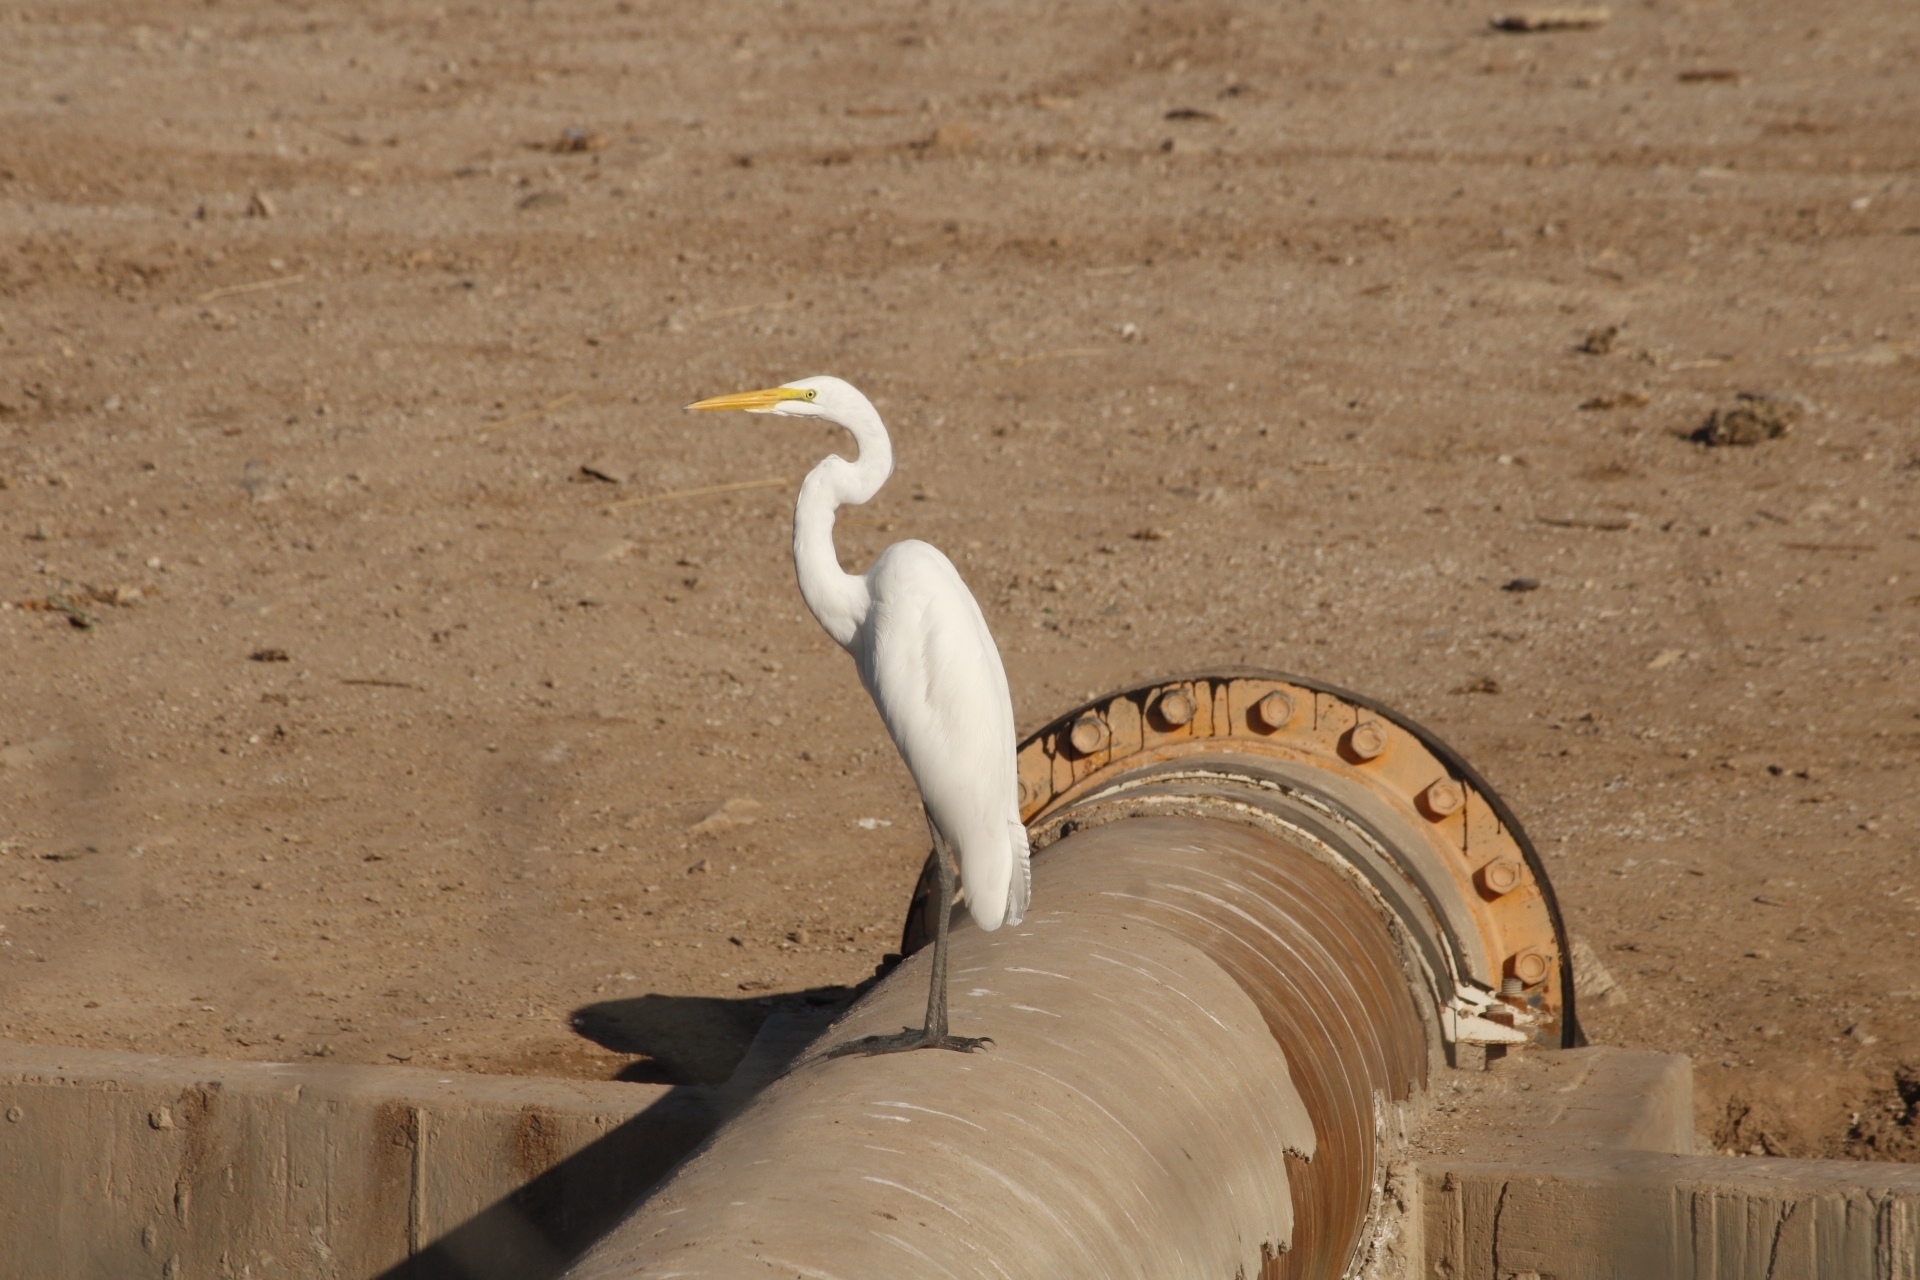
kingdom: Animalia
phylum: Chordata
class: Aves
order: Pelecaniformes
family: Ardeidae
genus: Ardea
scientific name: Ardea alba
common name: Great egret
